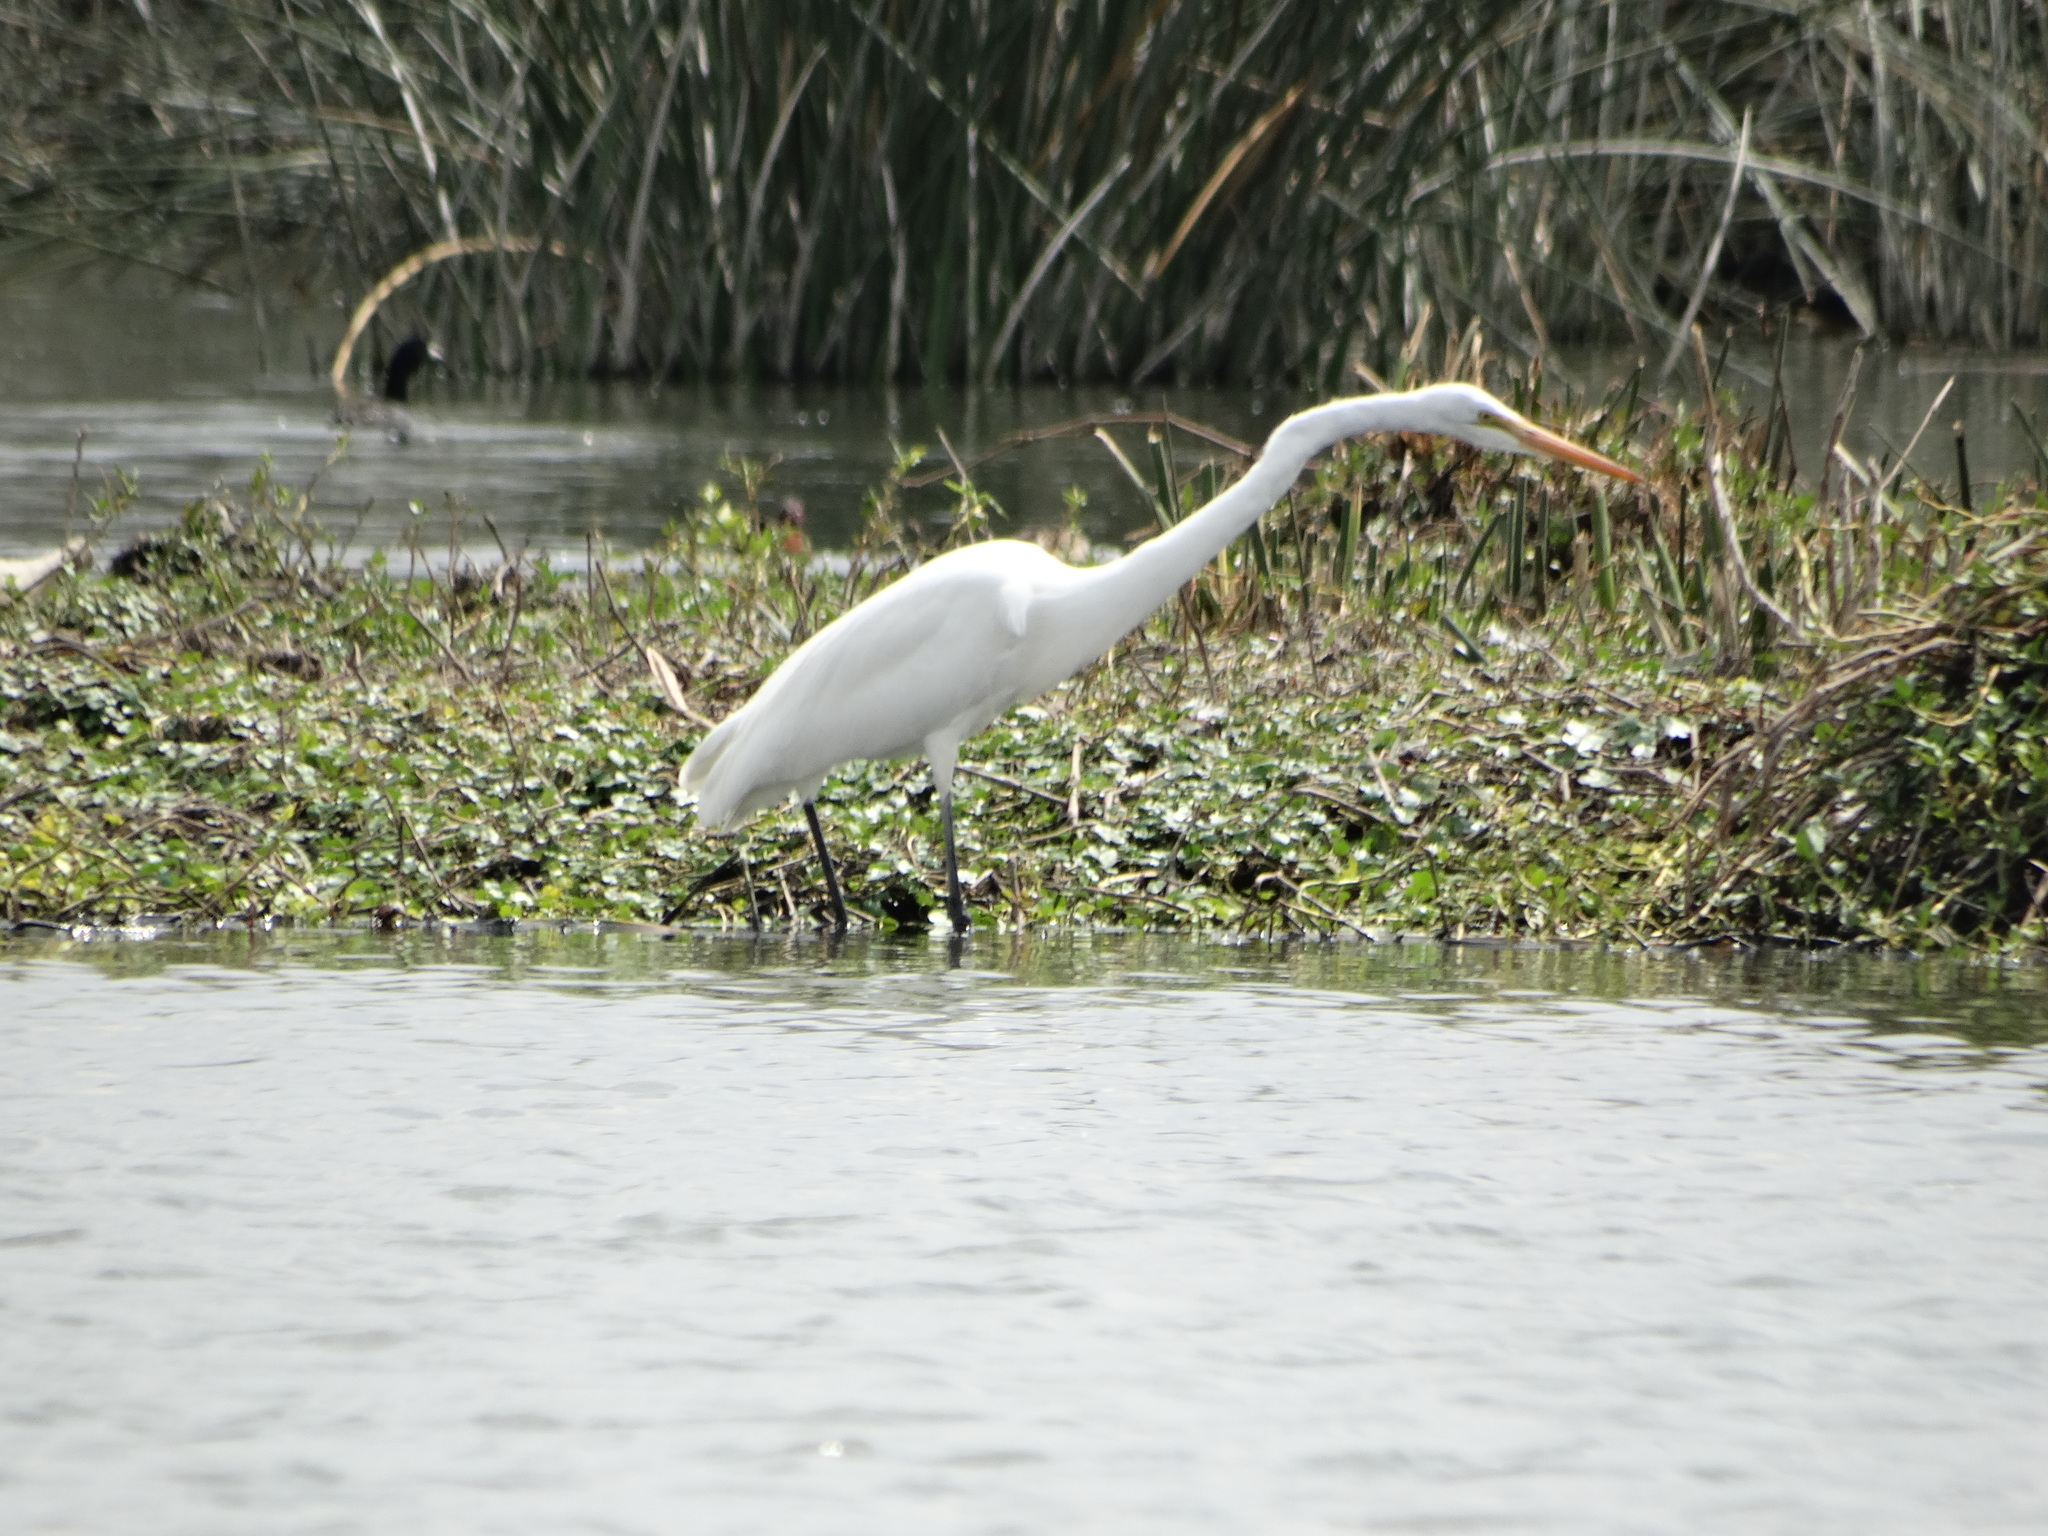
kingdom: Animalia
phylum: Chordata
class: Aves
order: Pelecaniformes
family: Ardeidae
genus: Ardea
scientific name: Ardea alba
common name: Great egret
